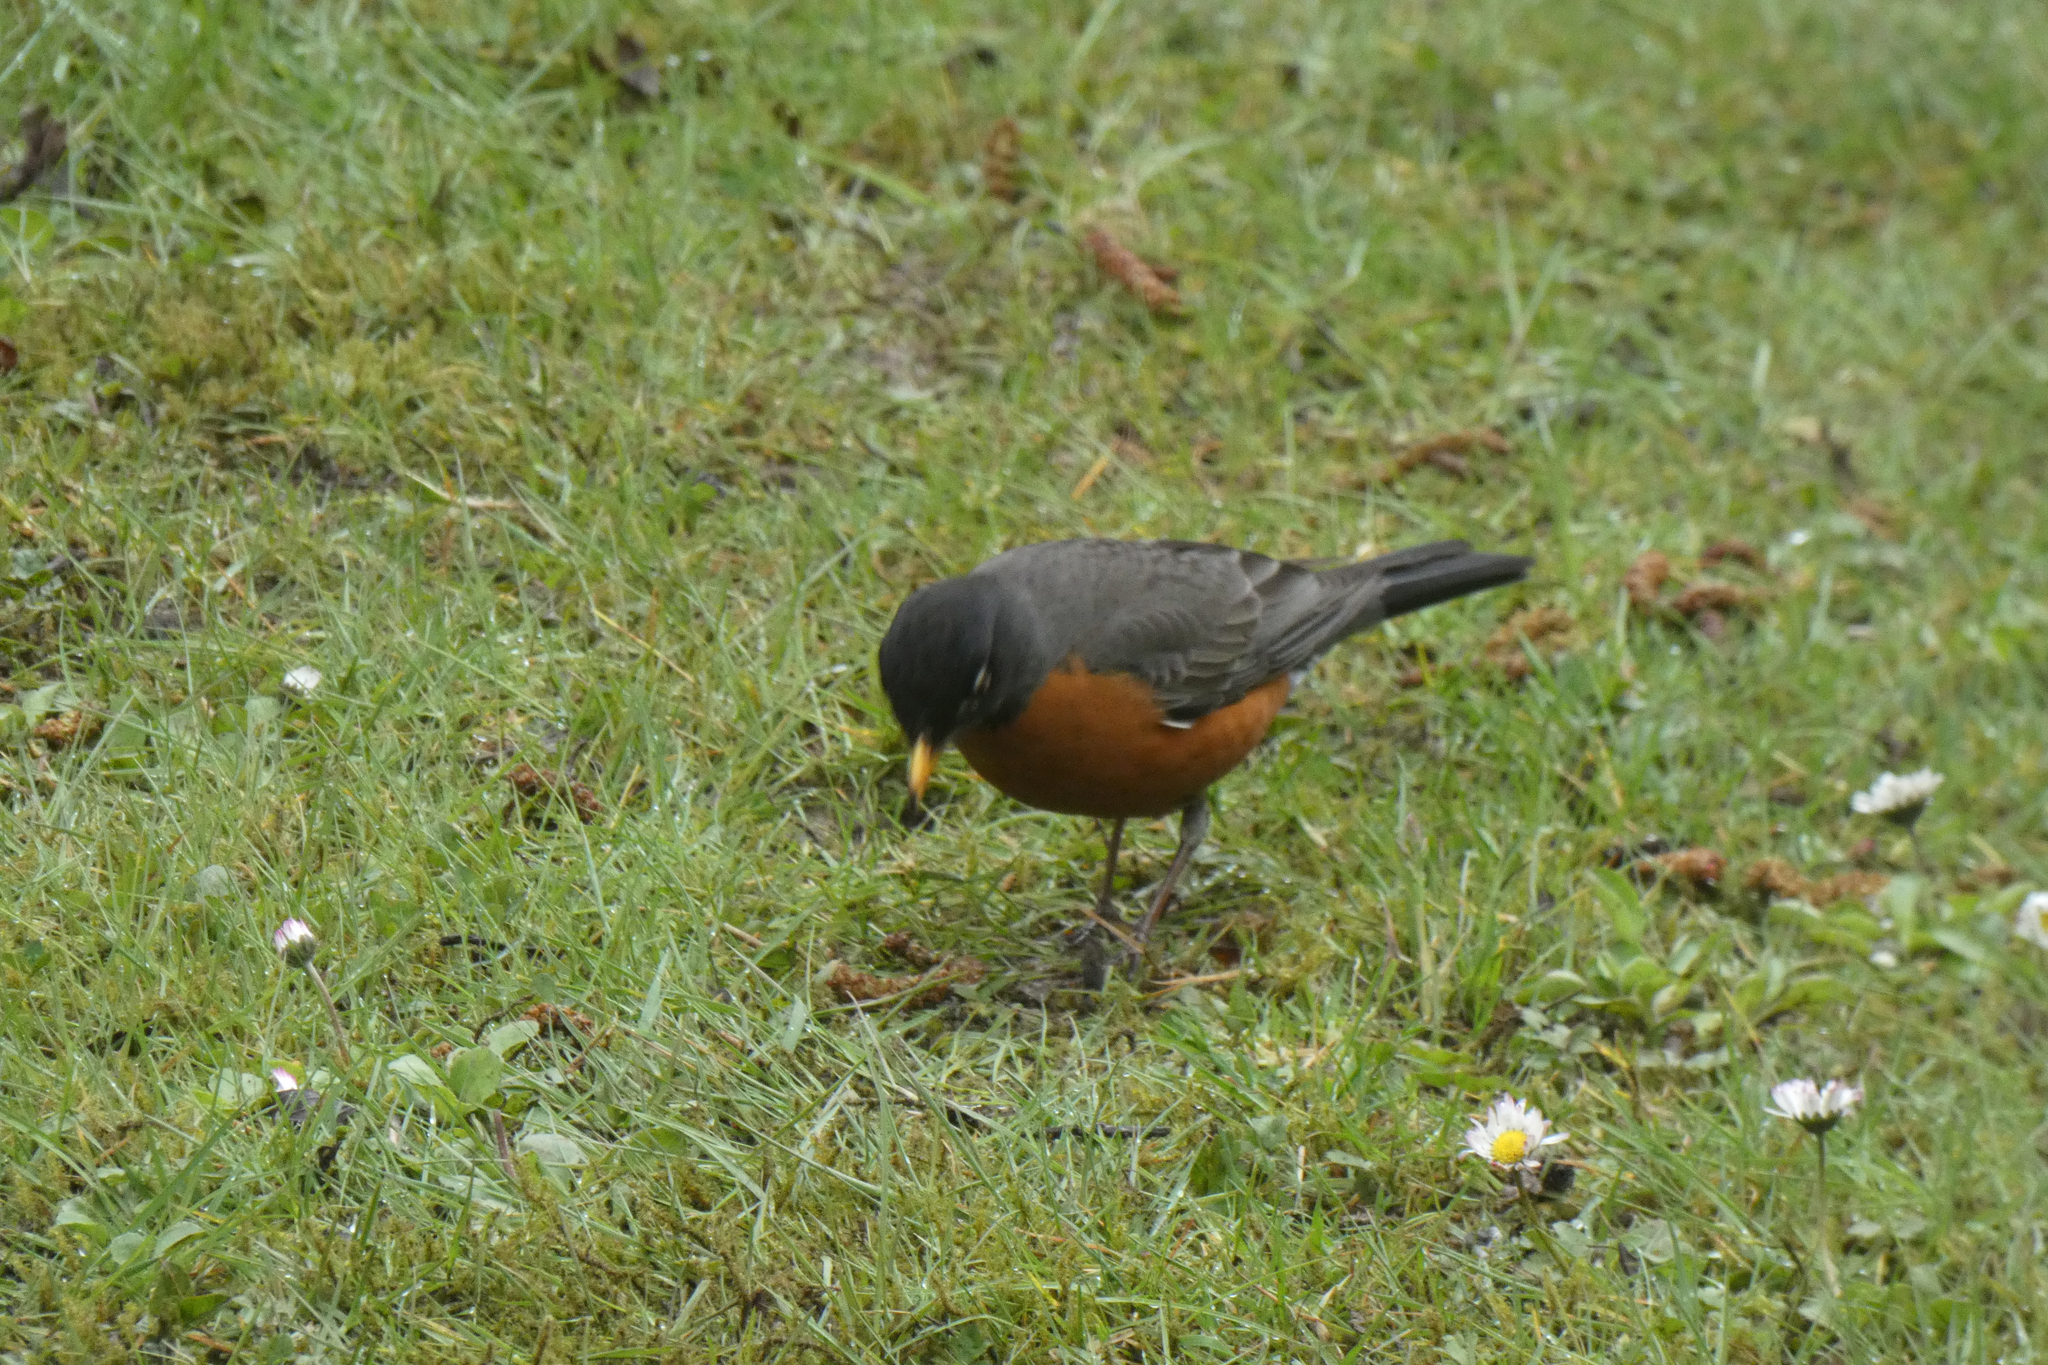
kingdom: Animalia
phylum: Chordata
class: Aves
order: Passeriformes
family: Turdidae
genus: Turdus
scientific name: Turdus migratorius
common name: American robin
